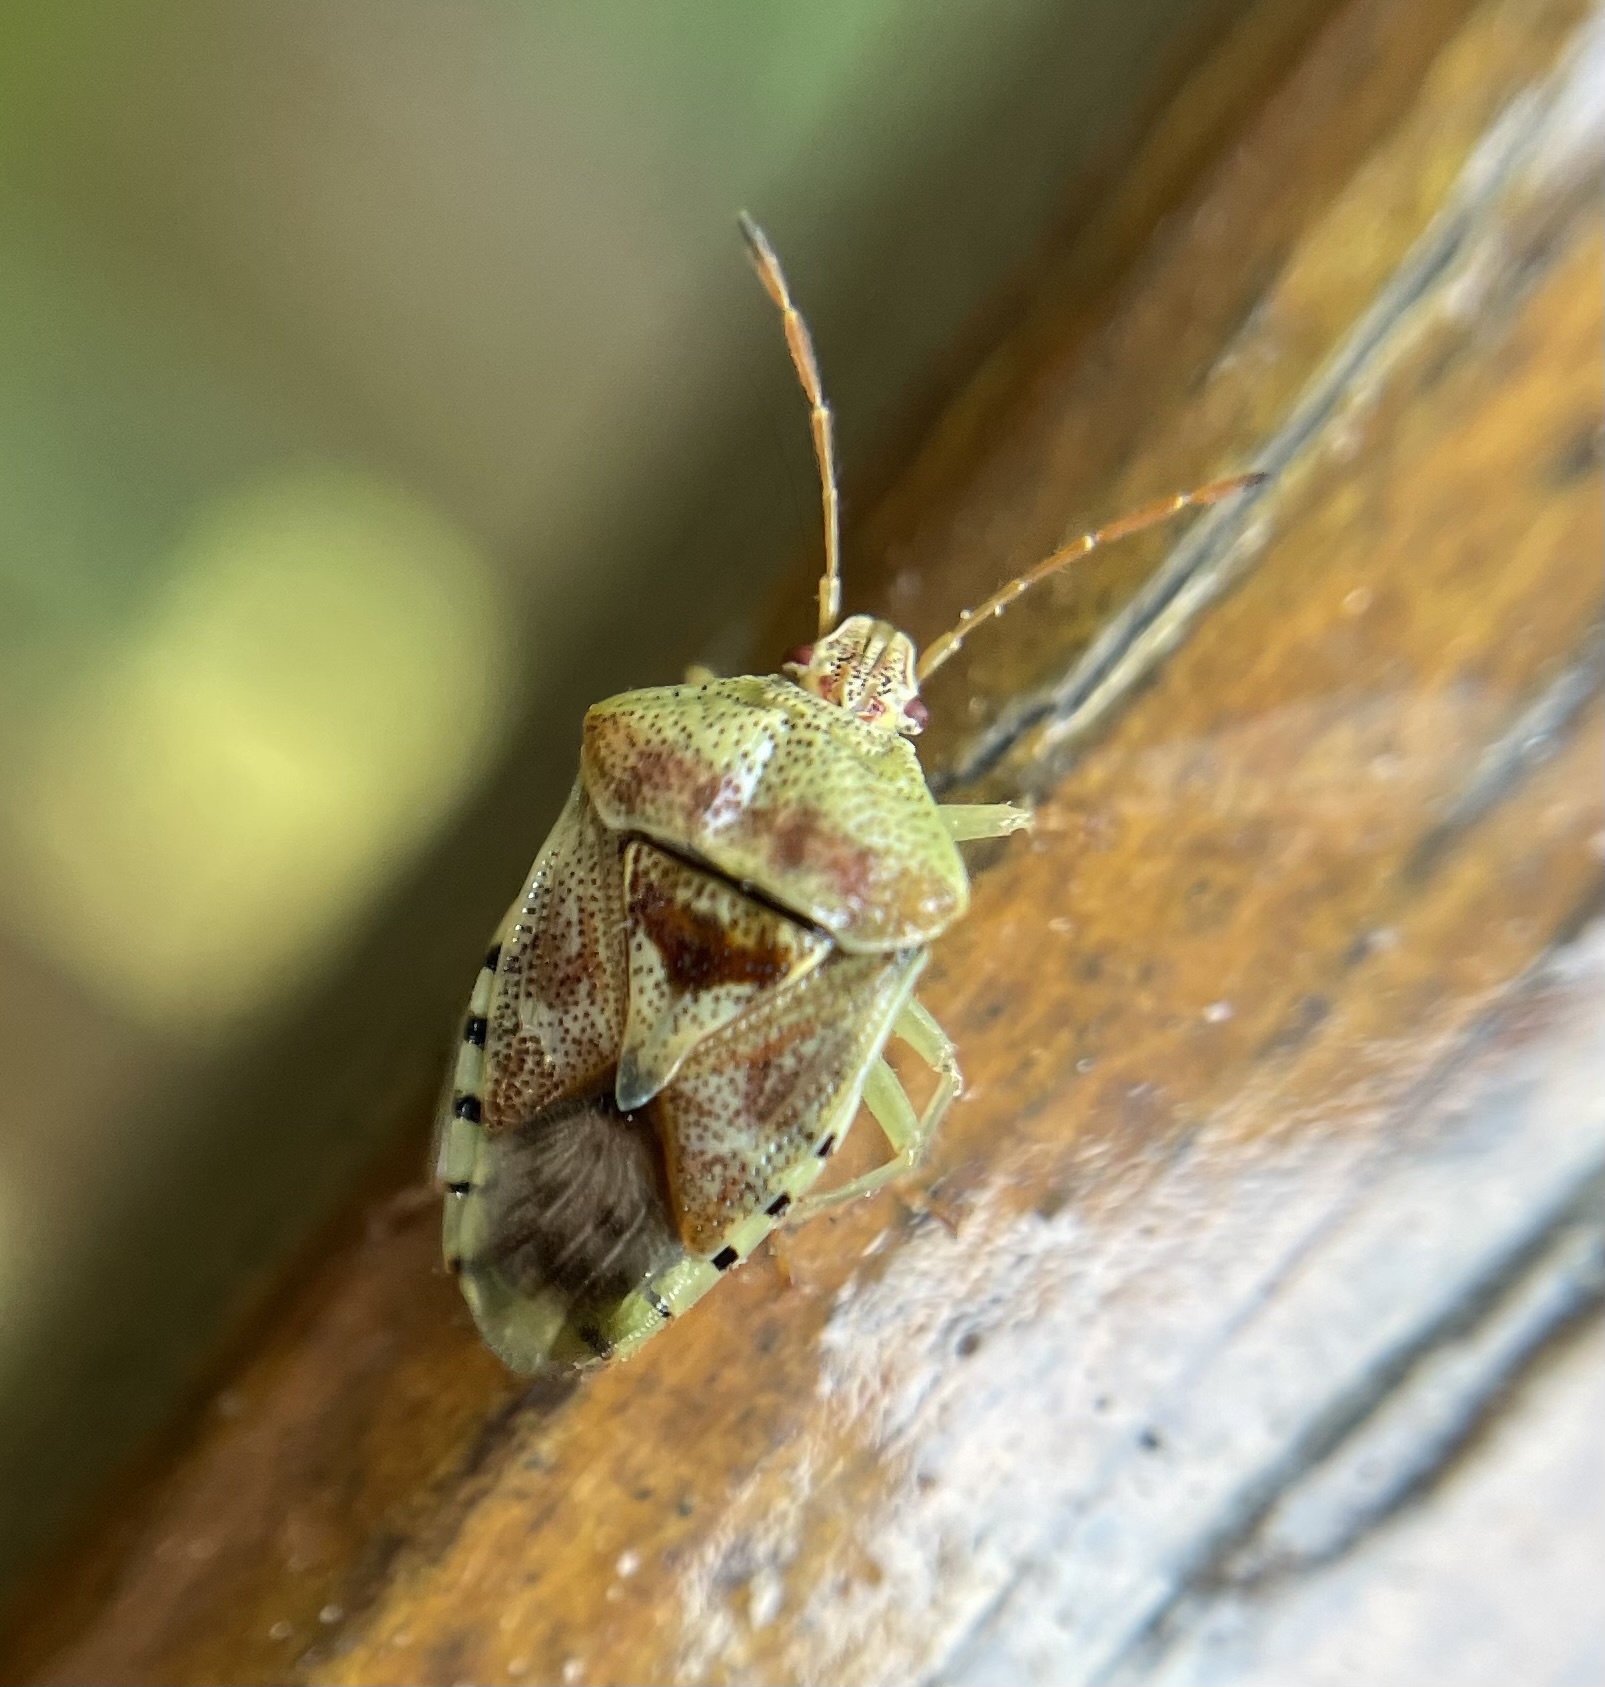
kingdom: Animalia
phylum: Arthropoda
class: Insecta
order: Hemiptera
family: Acanthosomatidae
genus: Elasmucha
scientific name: Elasmucha grisea
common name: Parent bug
